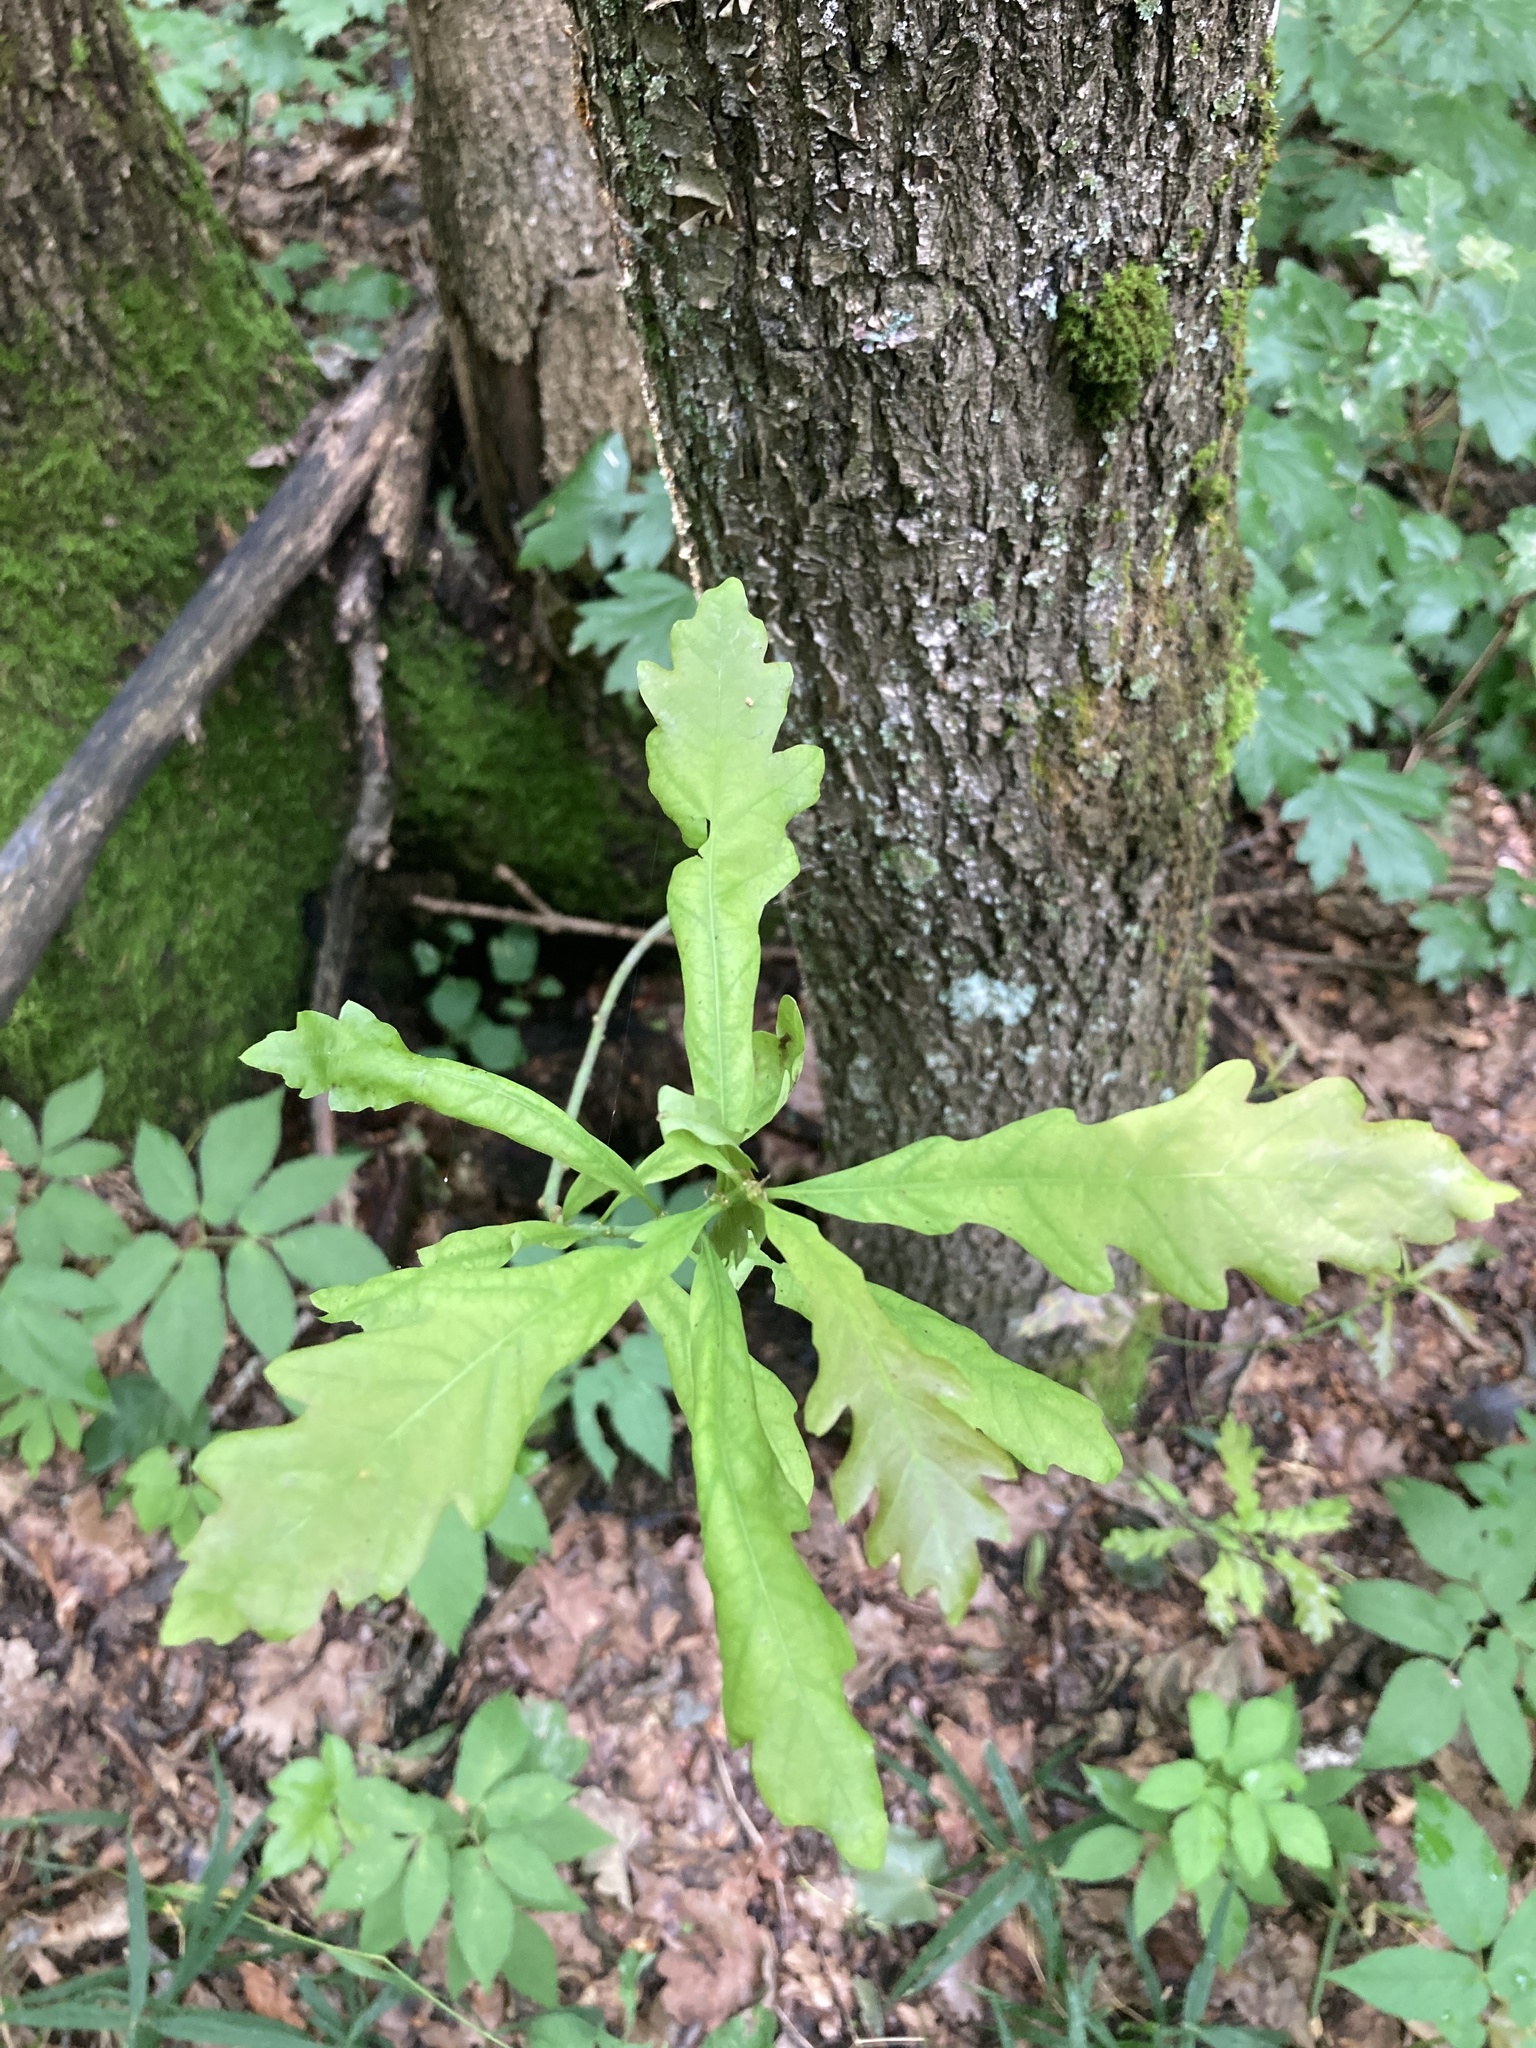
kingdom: Plantae
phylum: Tracheophyta
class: Magnoliopsida
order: Fagales
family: Fagaceae
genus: Quercus
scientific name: Quercus robur
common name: Pedunculate oak
